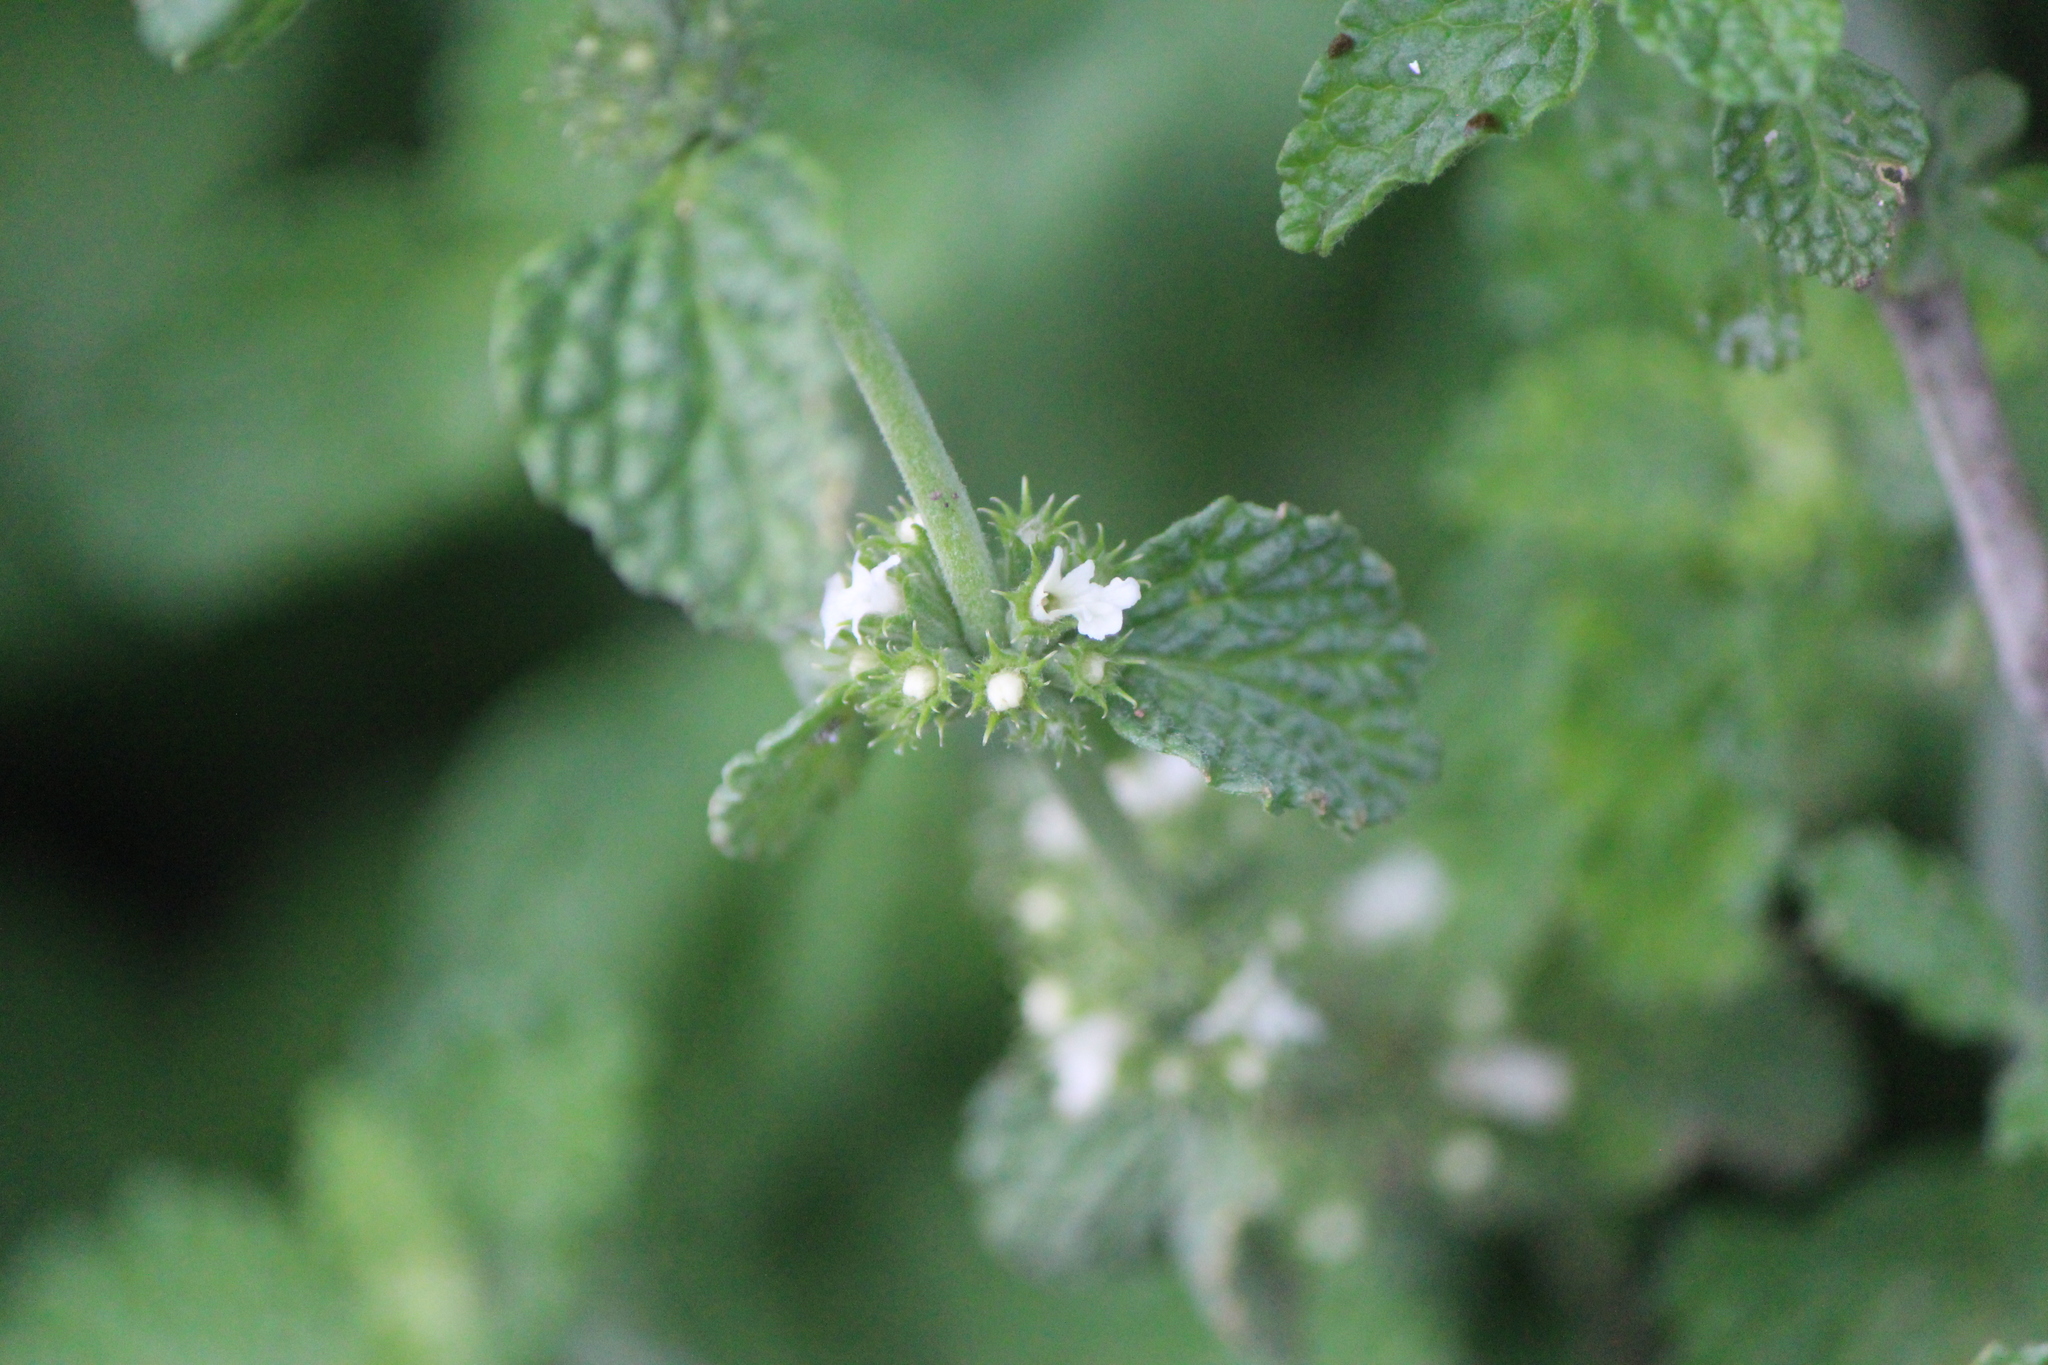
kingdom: Plantae
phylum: Tracheophyta
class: Magnoliopsida
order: Lamiales
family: Lamiaceae
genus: Marrubium
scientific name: Marrubium vulgare
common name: Horehound
